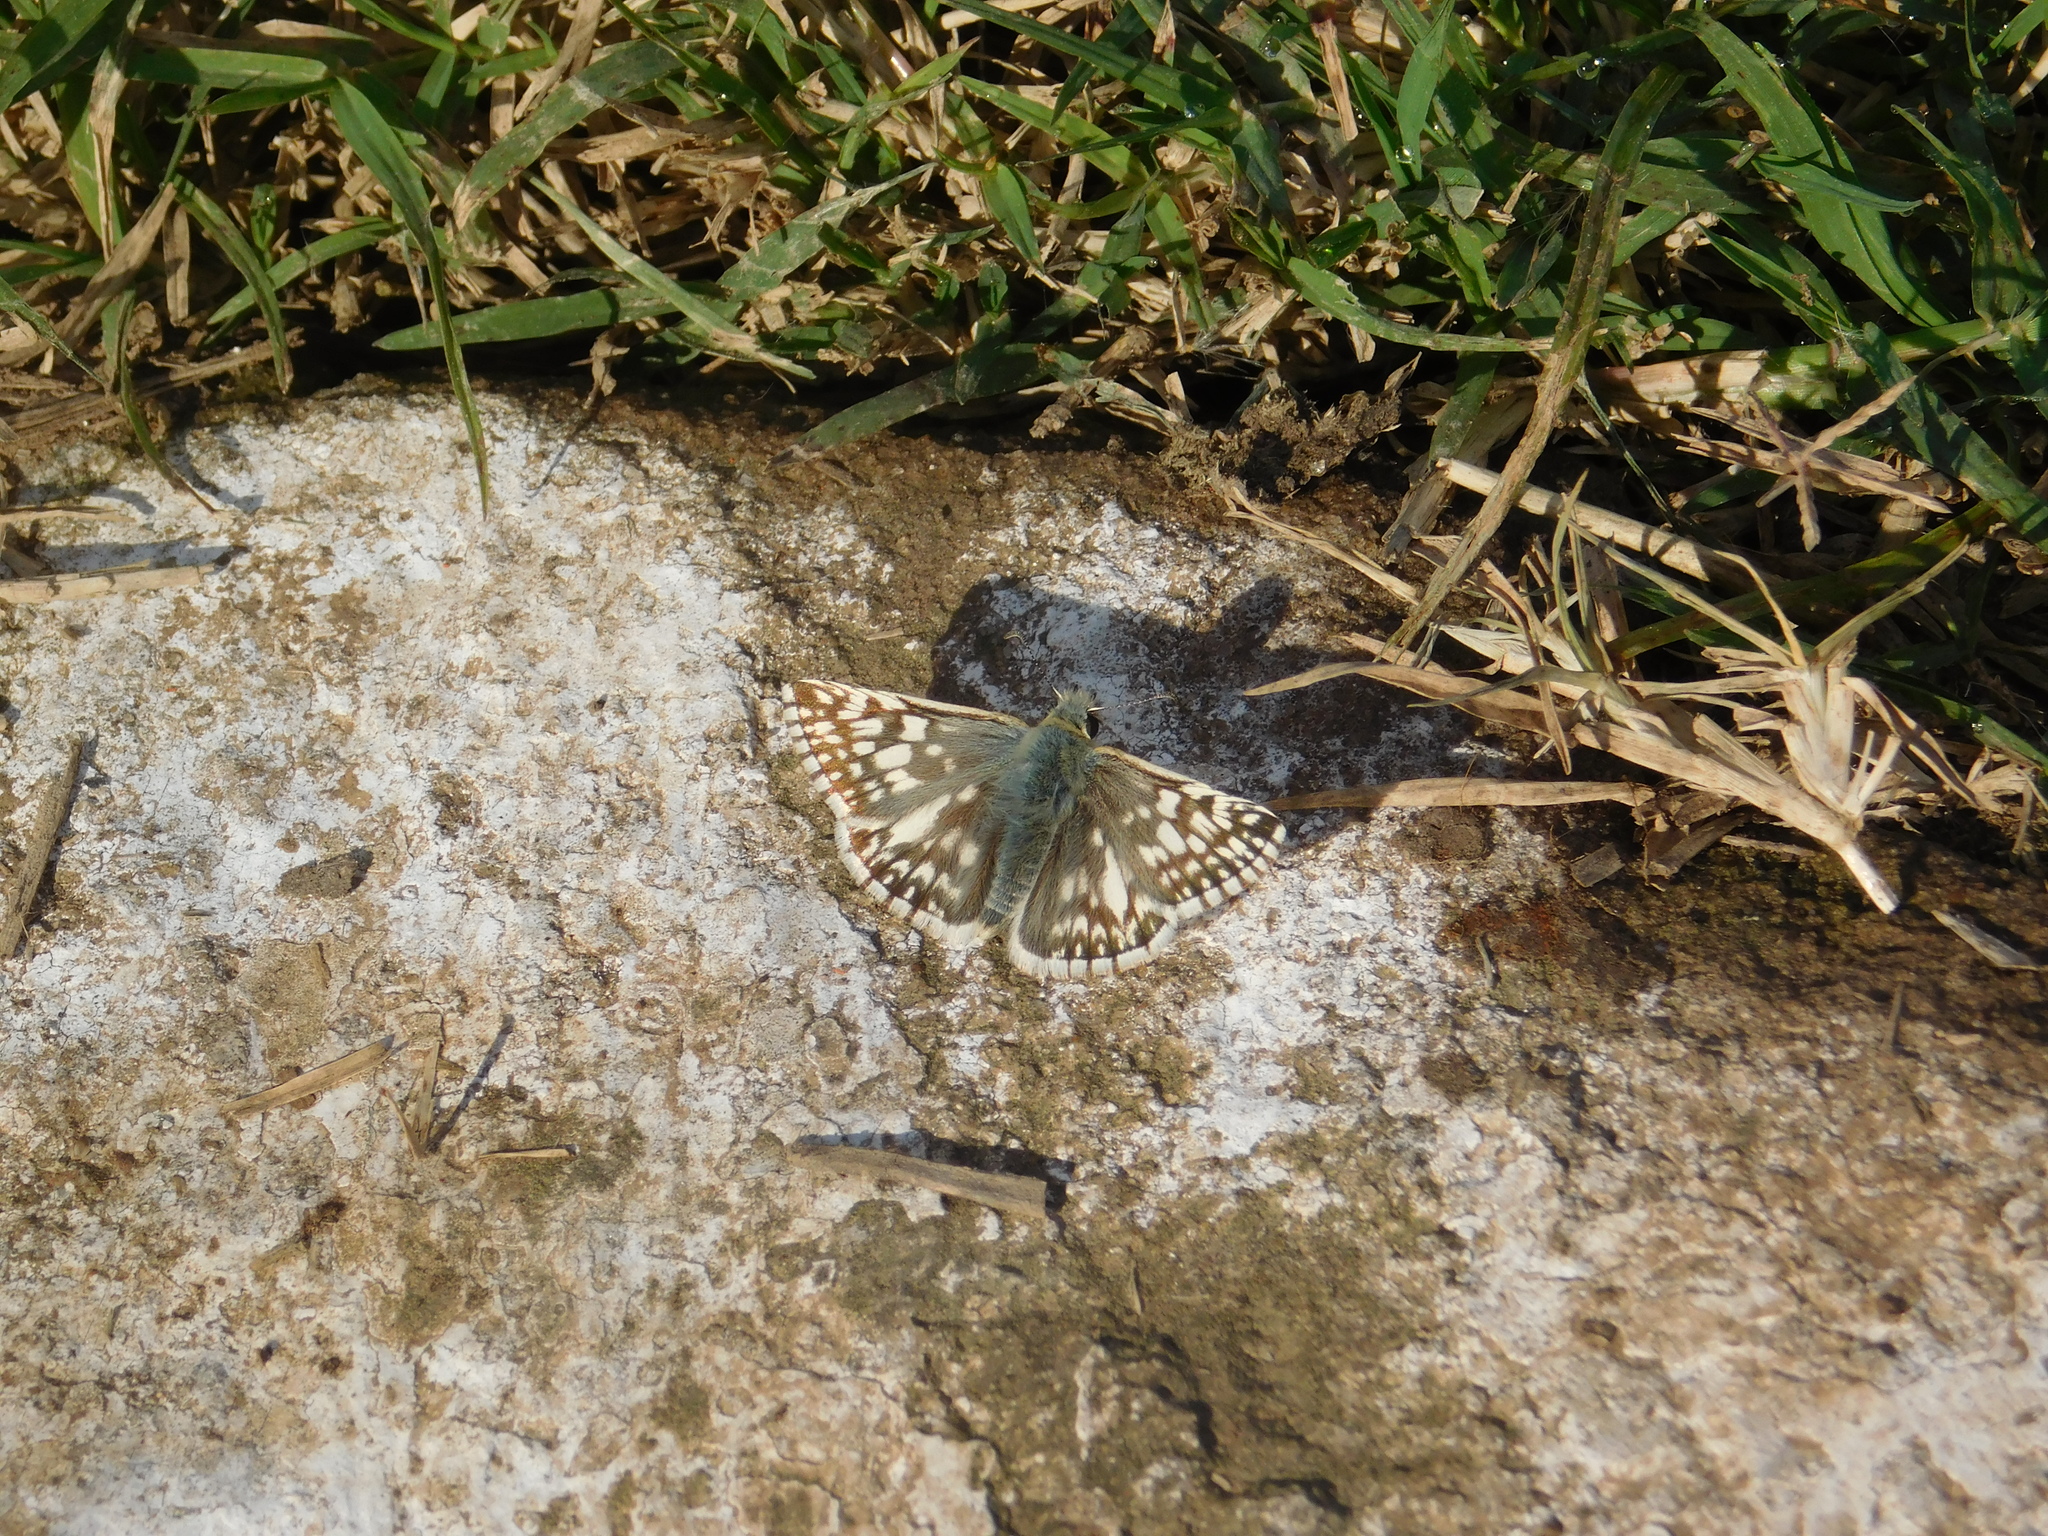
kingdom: Animalia
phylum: Arthropoda
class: Insecta
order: Lepidoptera
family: Hesperiidae
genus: Heliopetes
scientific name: Heliopetes americanus
